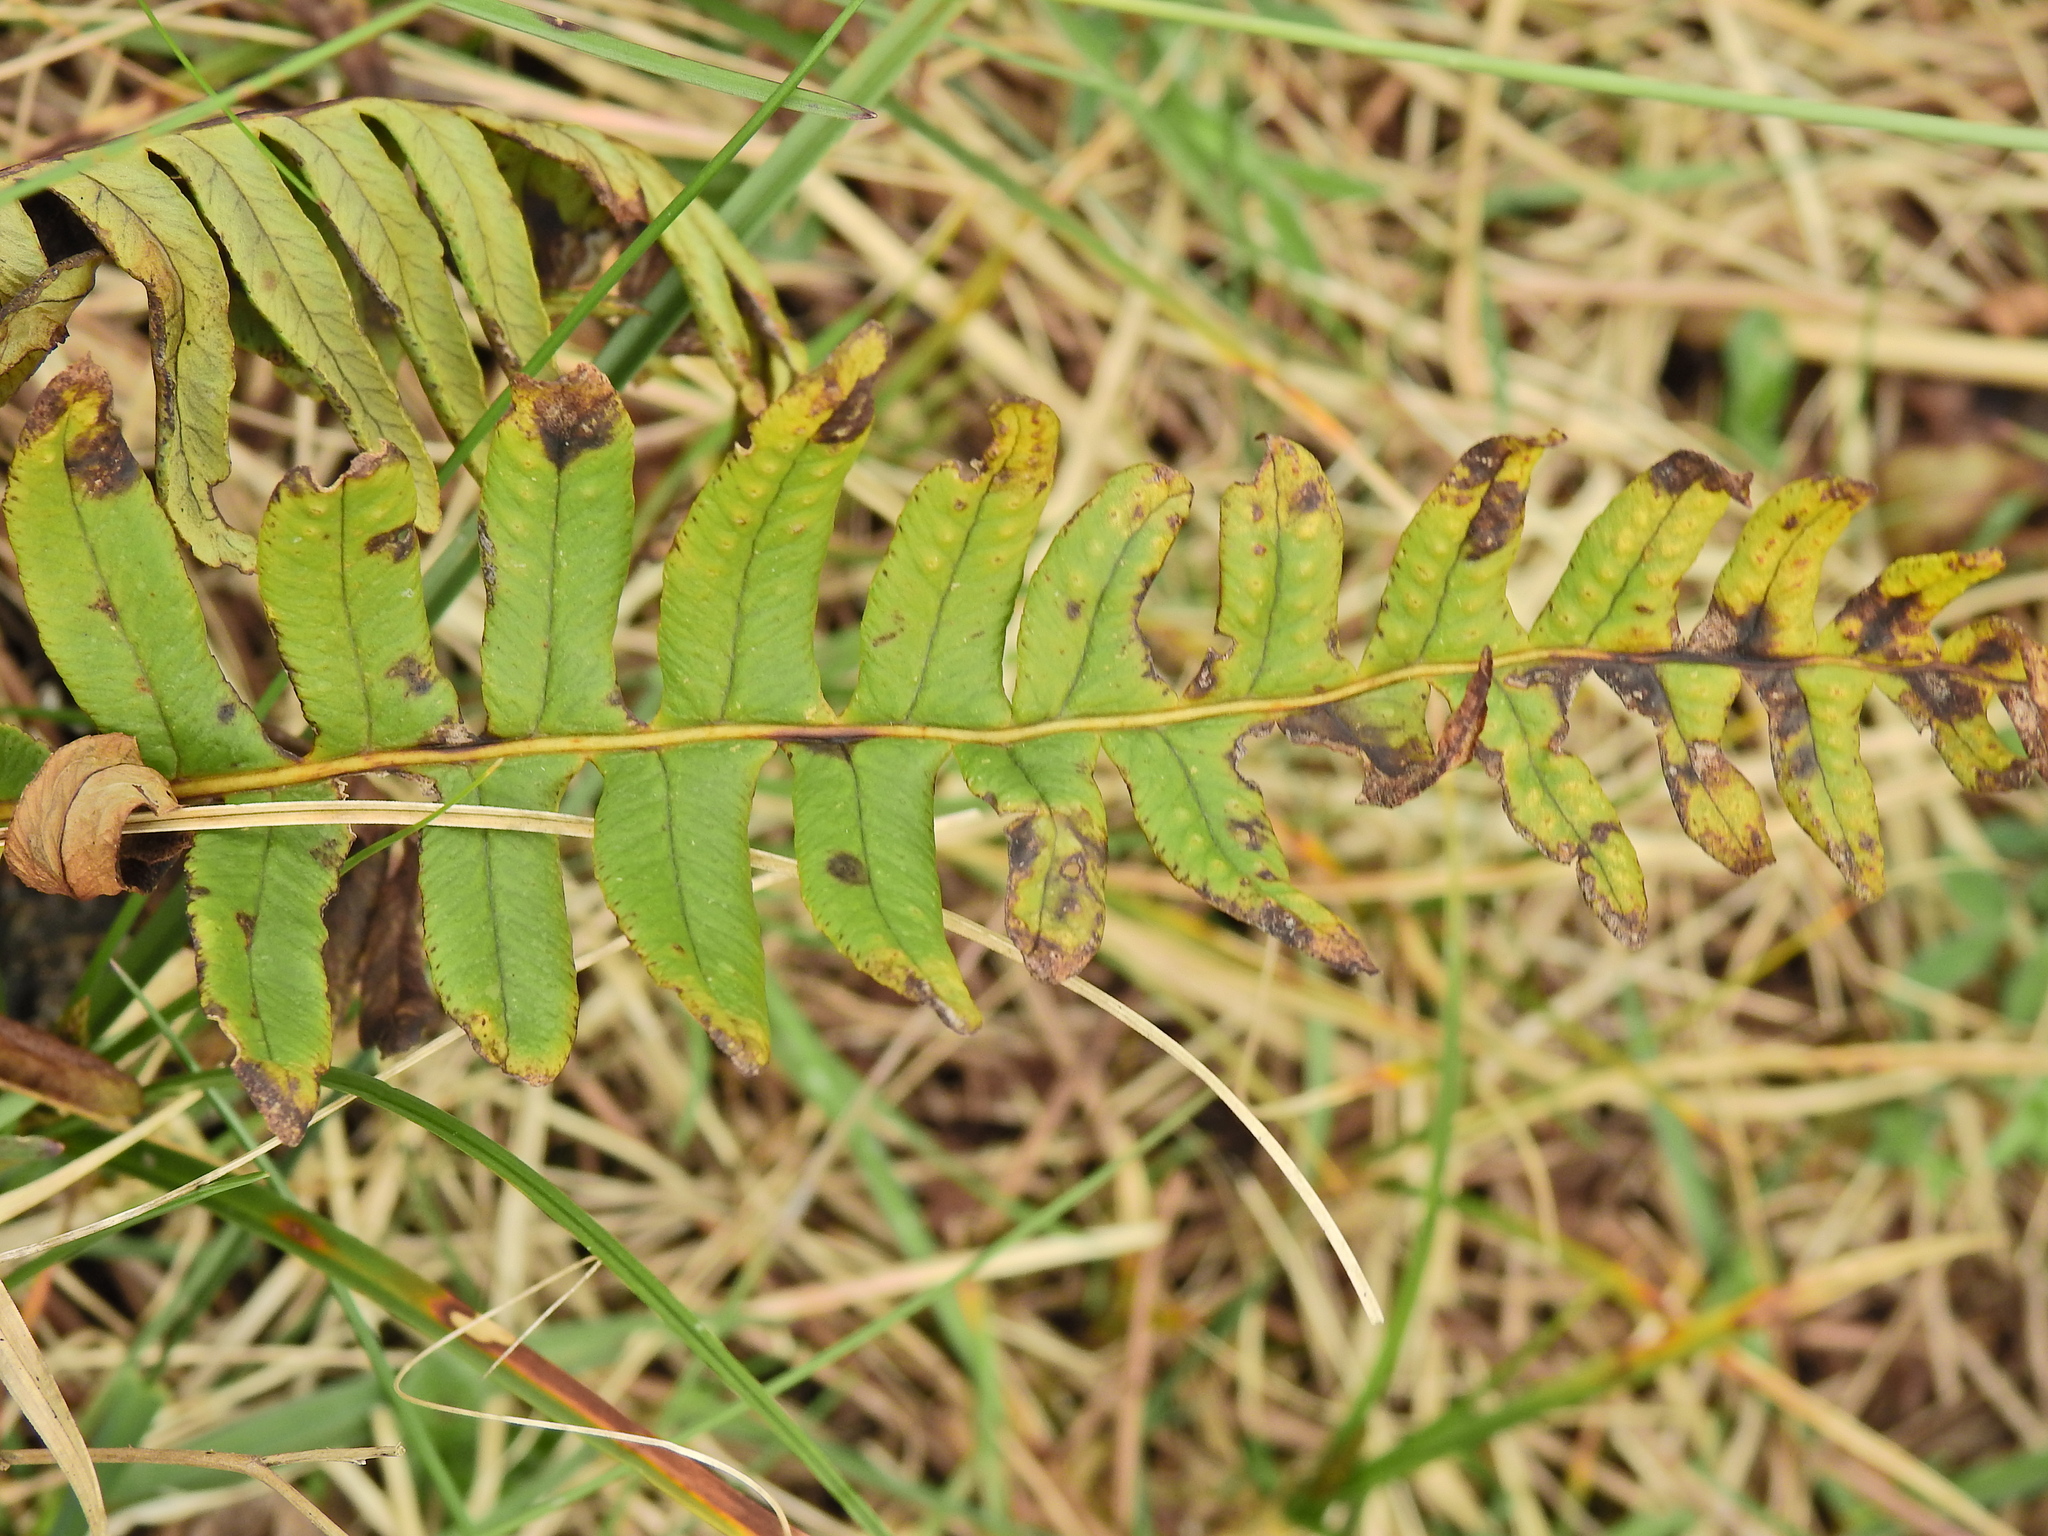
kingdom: Plantae
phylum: Tracheophyta
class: Polypodiopsida
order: Polypodiales
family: Polypodiaceae
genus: Polypodium
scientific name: Polypodium vulgare
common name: Common polypody
